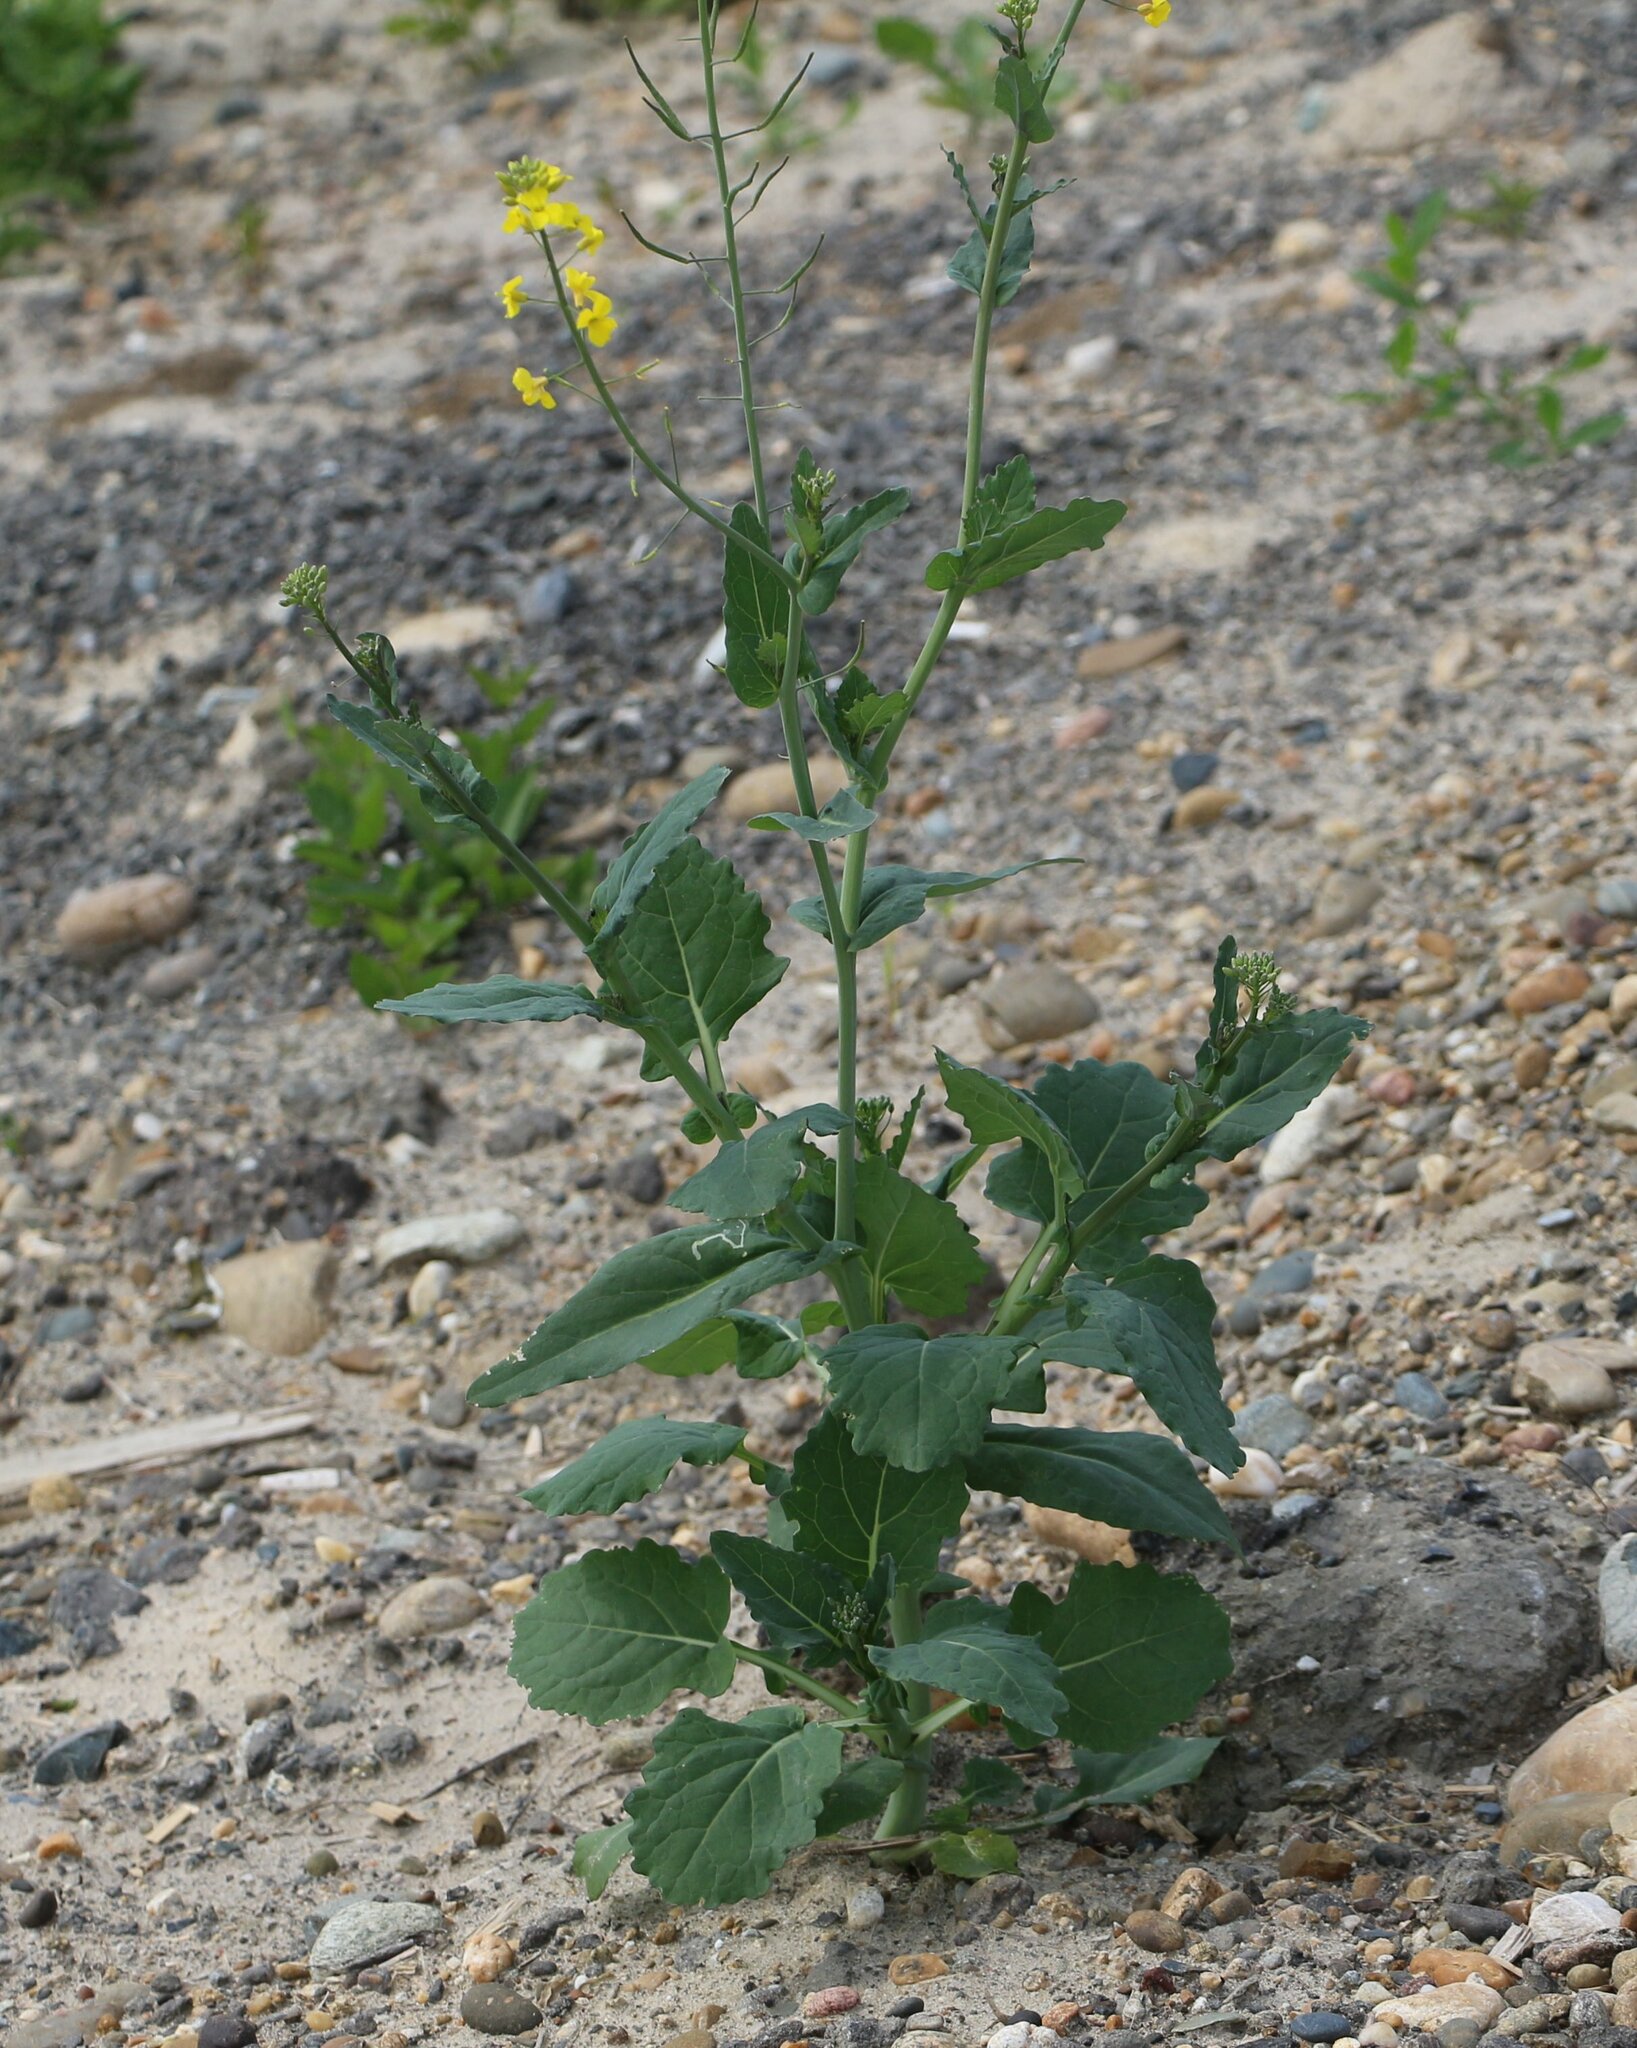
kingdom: Plantae
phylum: Tracheophyta
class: Magnoliopsida
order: Brassicales
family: Brassicaceae
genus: Brassica
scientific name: Brassica napus
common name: Rape
